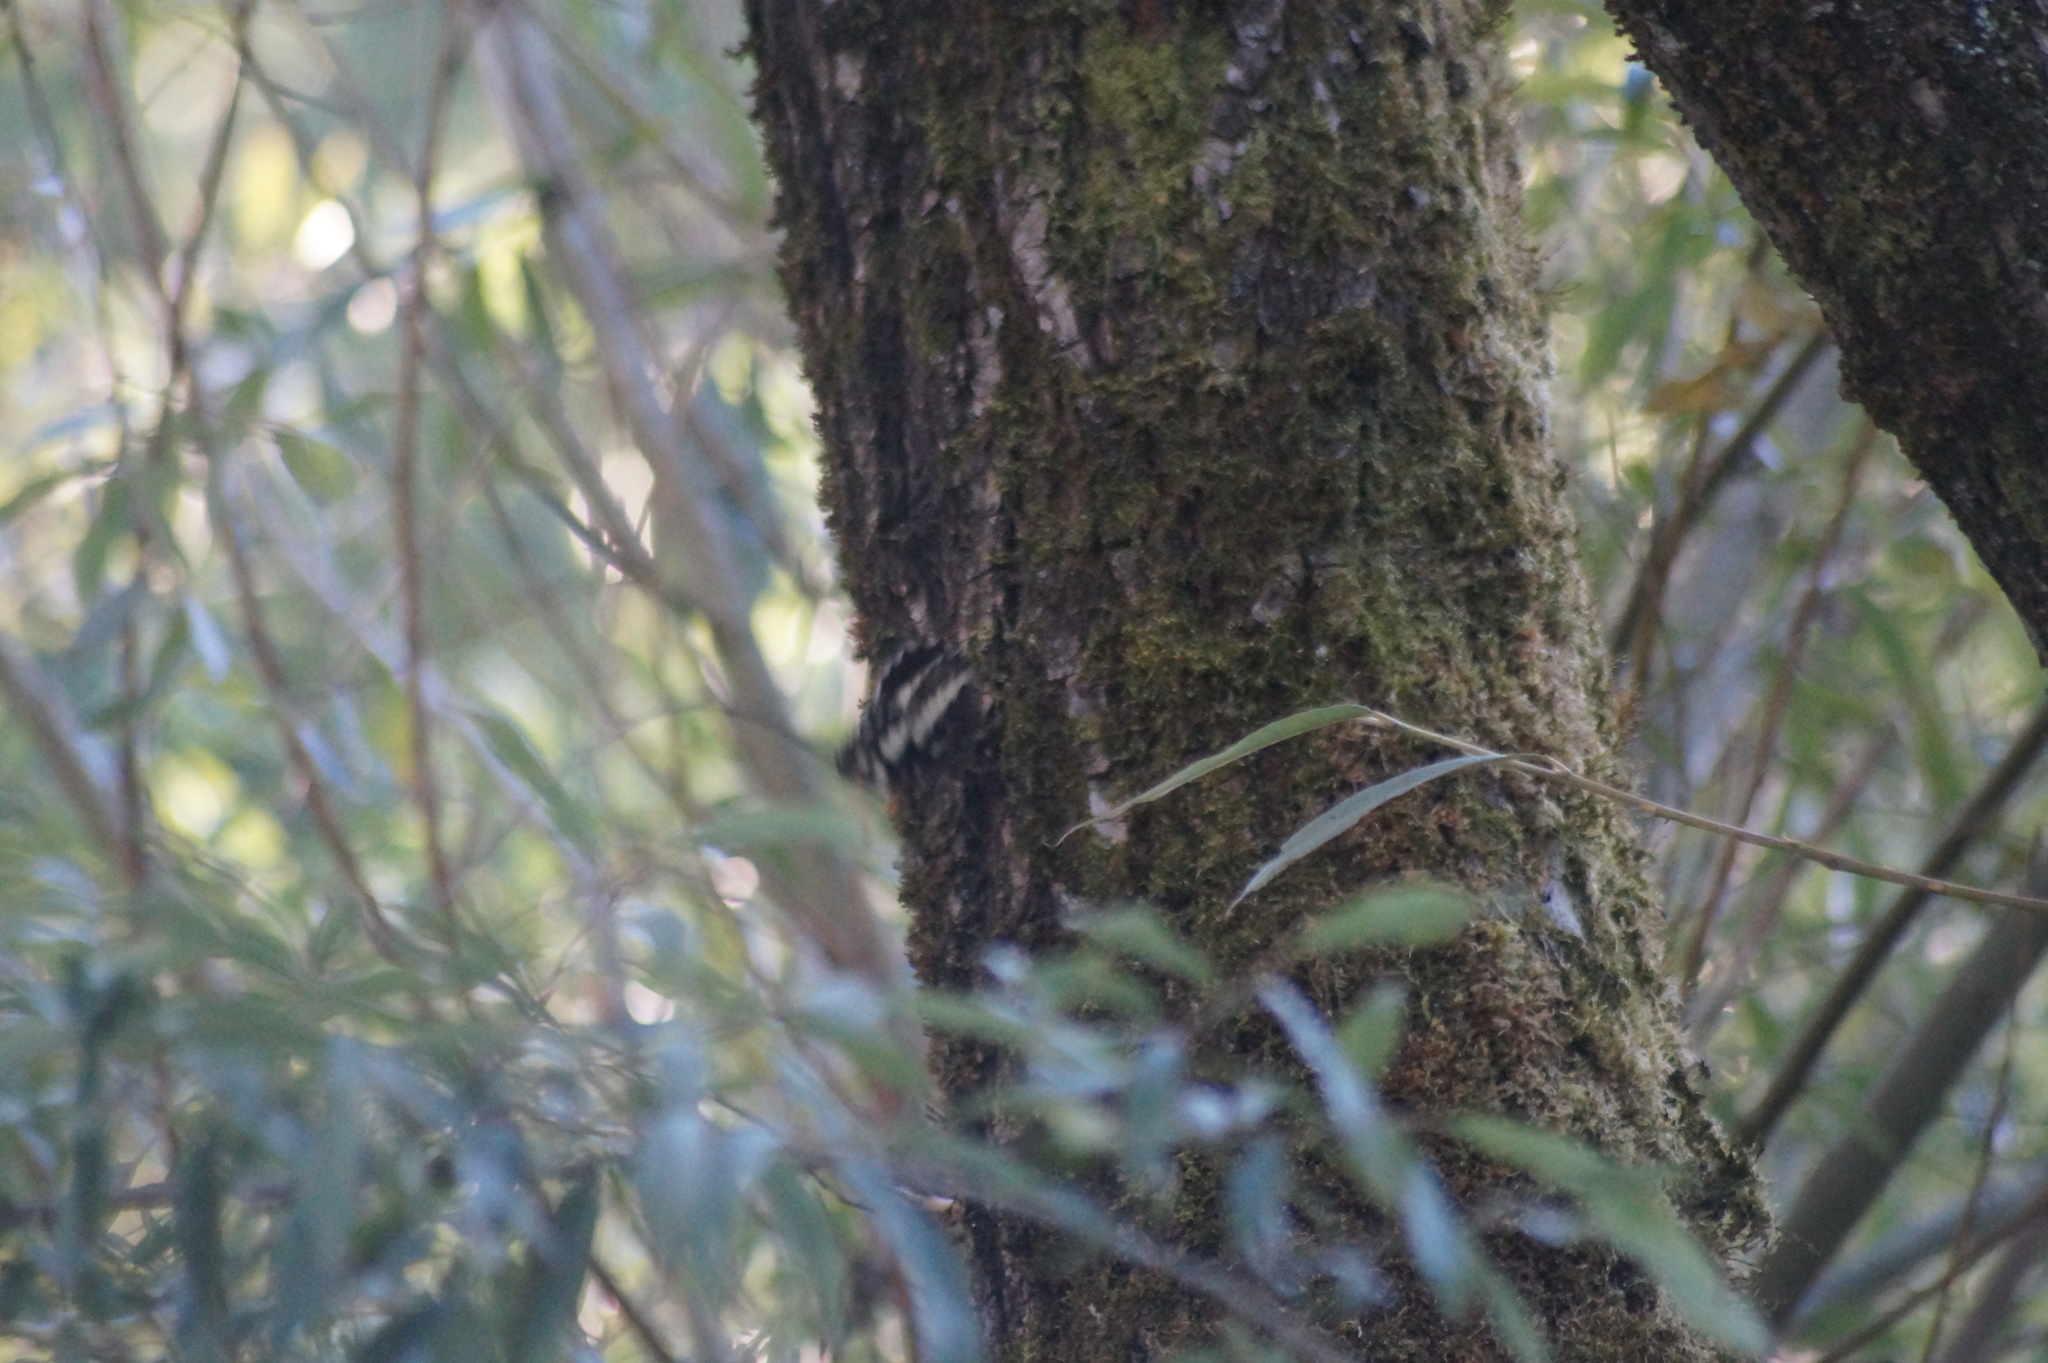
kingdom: Animalia
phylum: Arthropoda
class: Insecta
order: Lepidoptera
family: Lycaenidae
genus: Loweia
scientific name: Loweia tityrus
